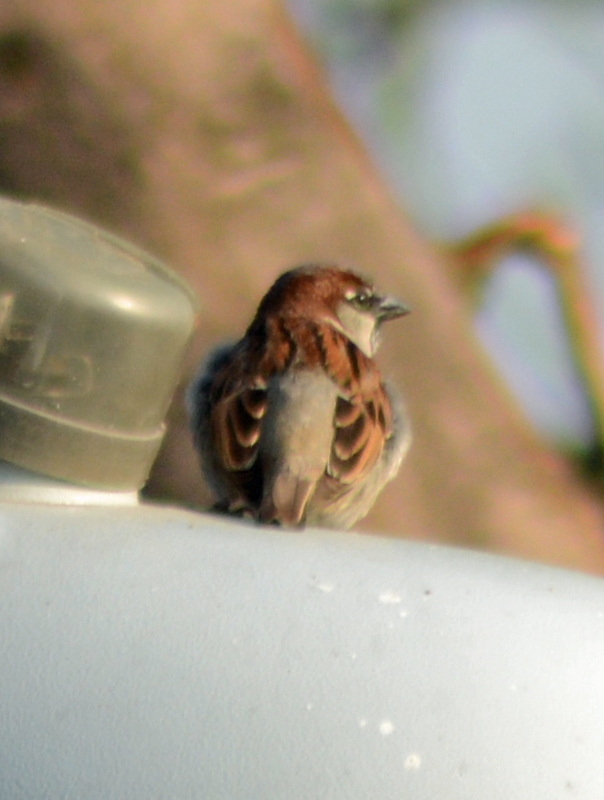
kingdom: Animalia
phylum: Chordata
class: Aves
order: Passeriformes
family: Passeridae
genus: Passer
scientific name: Passer domesticus
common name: House sparrow
